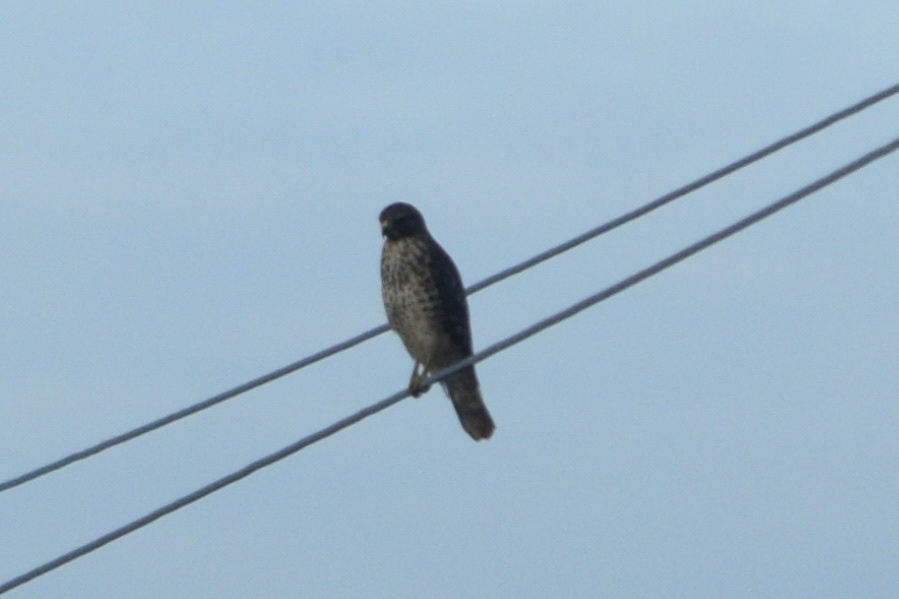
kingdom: Animalia
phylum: Chordata
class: Aves
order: Accipitriformes
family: Accipitridae
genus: Buteo
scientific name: Buteo lineatus
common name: Red-shouldered hawk
